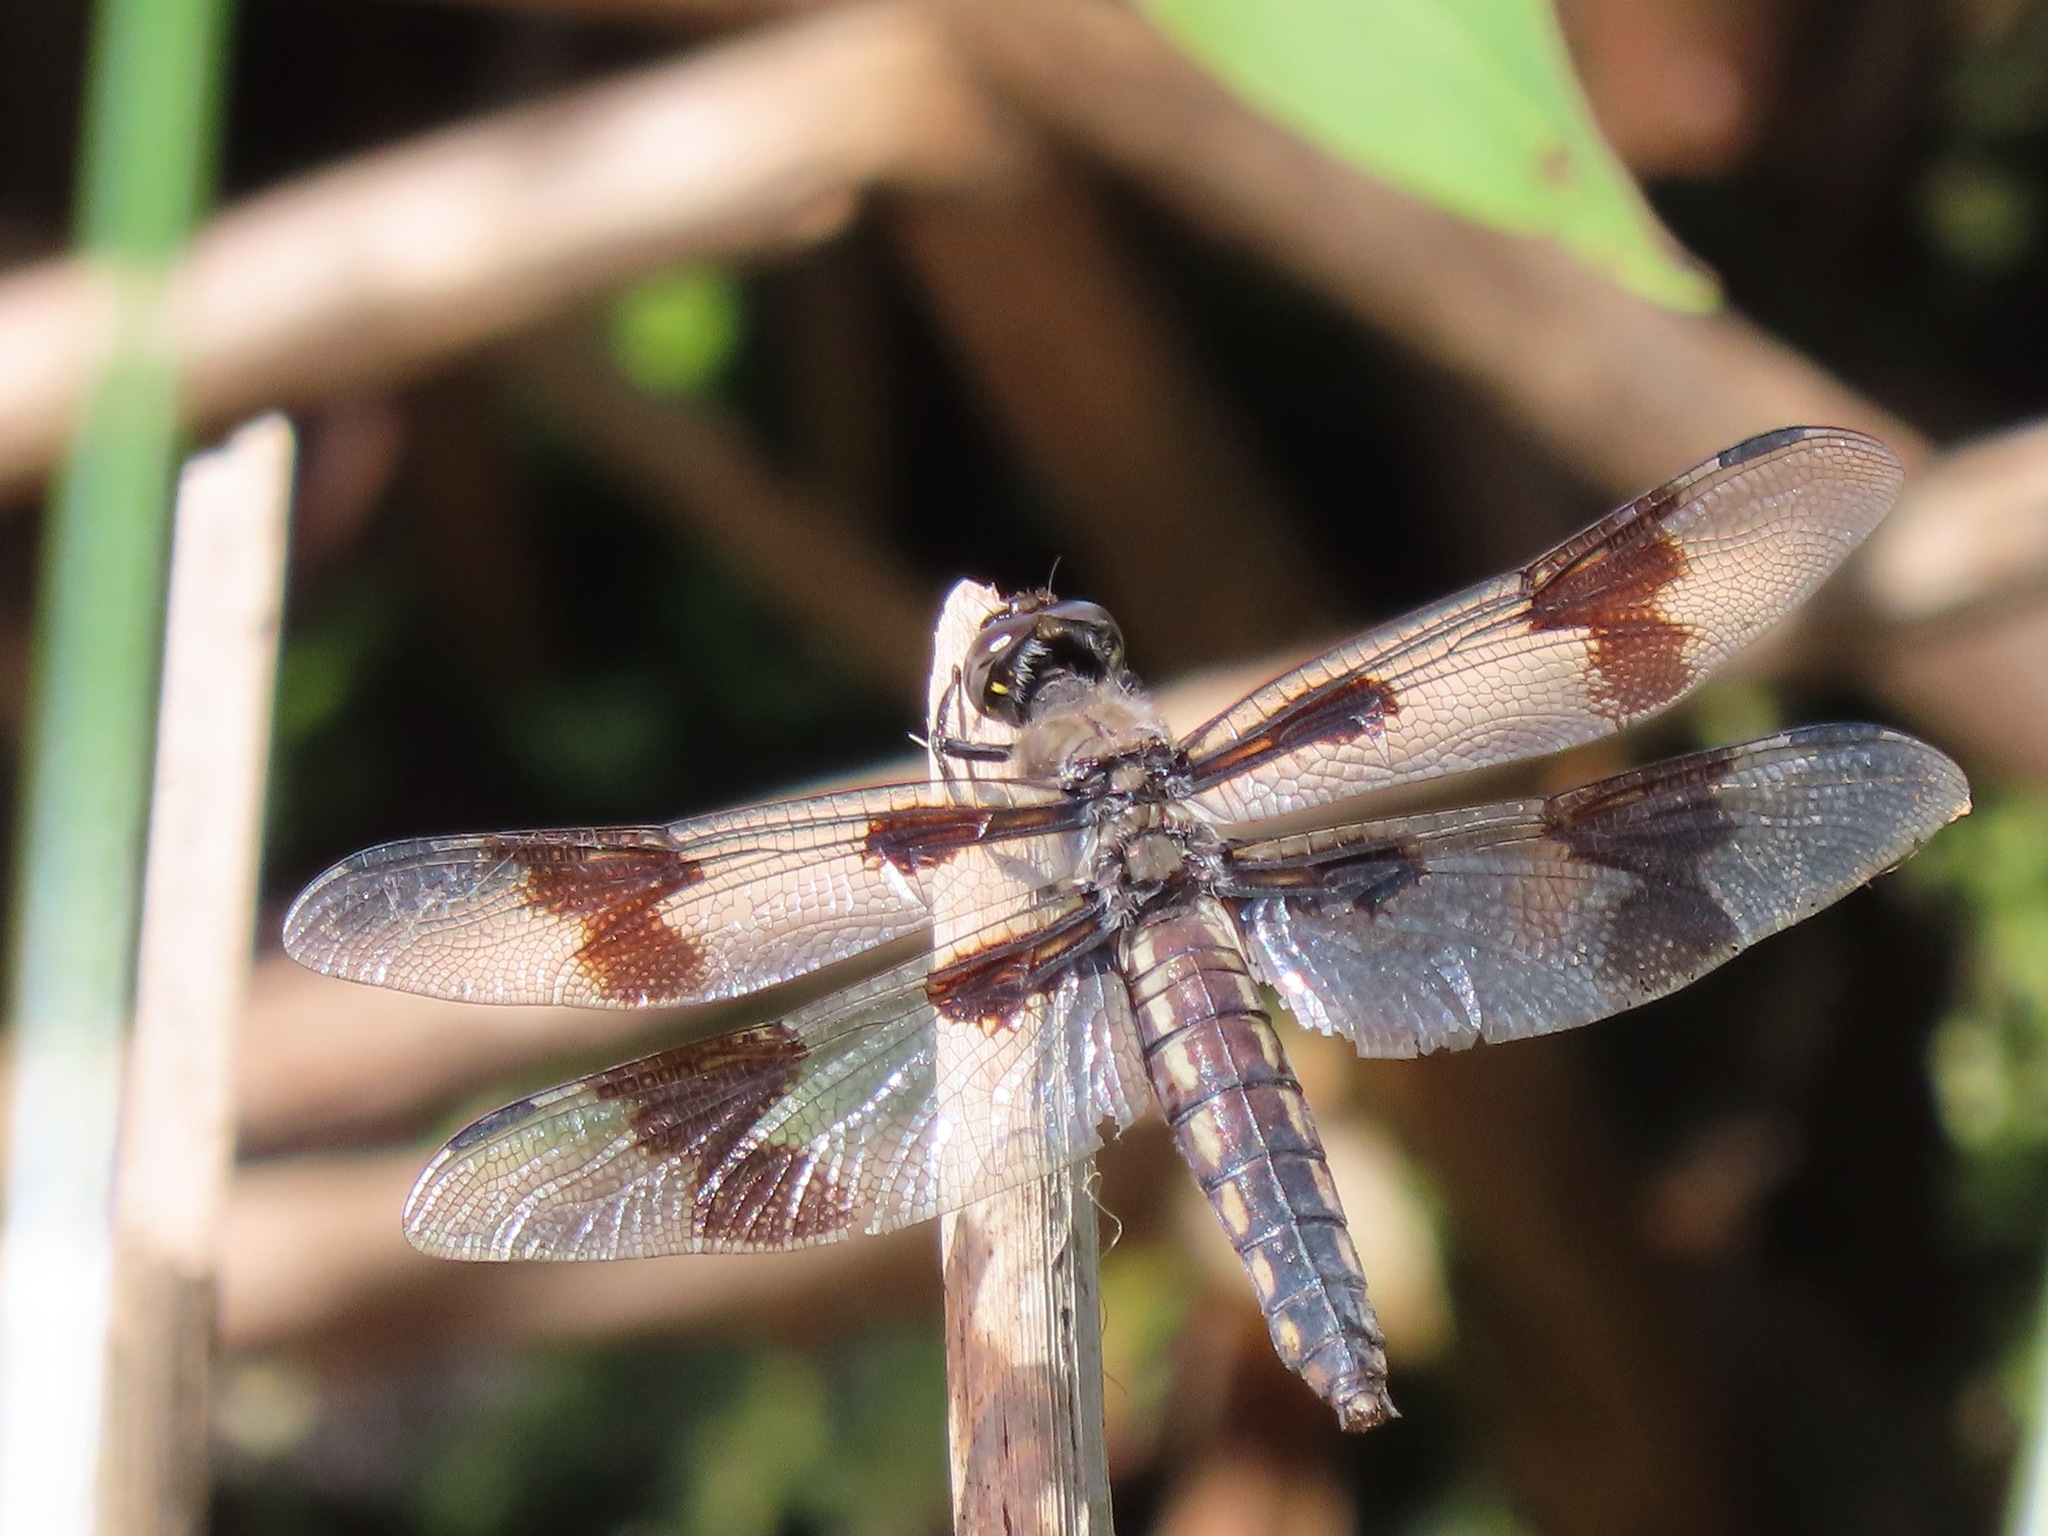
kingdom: Animalia
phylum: Arthropoda
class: Insecta
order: Odonata
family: Libellulidae
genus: Libellula
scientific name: Libellula forensis
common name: Eight-spotted skimmer
